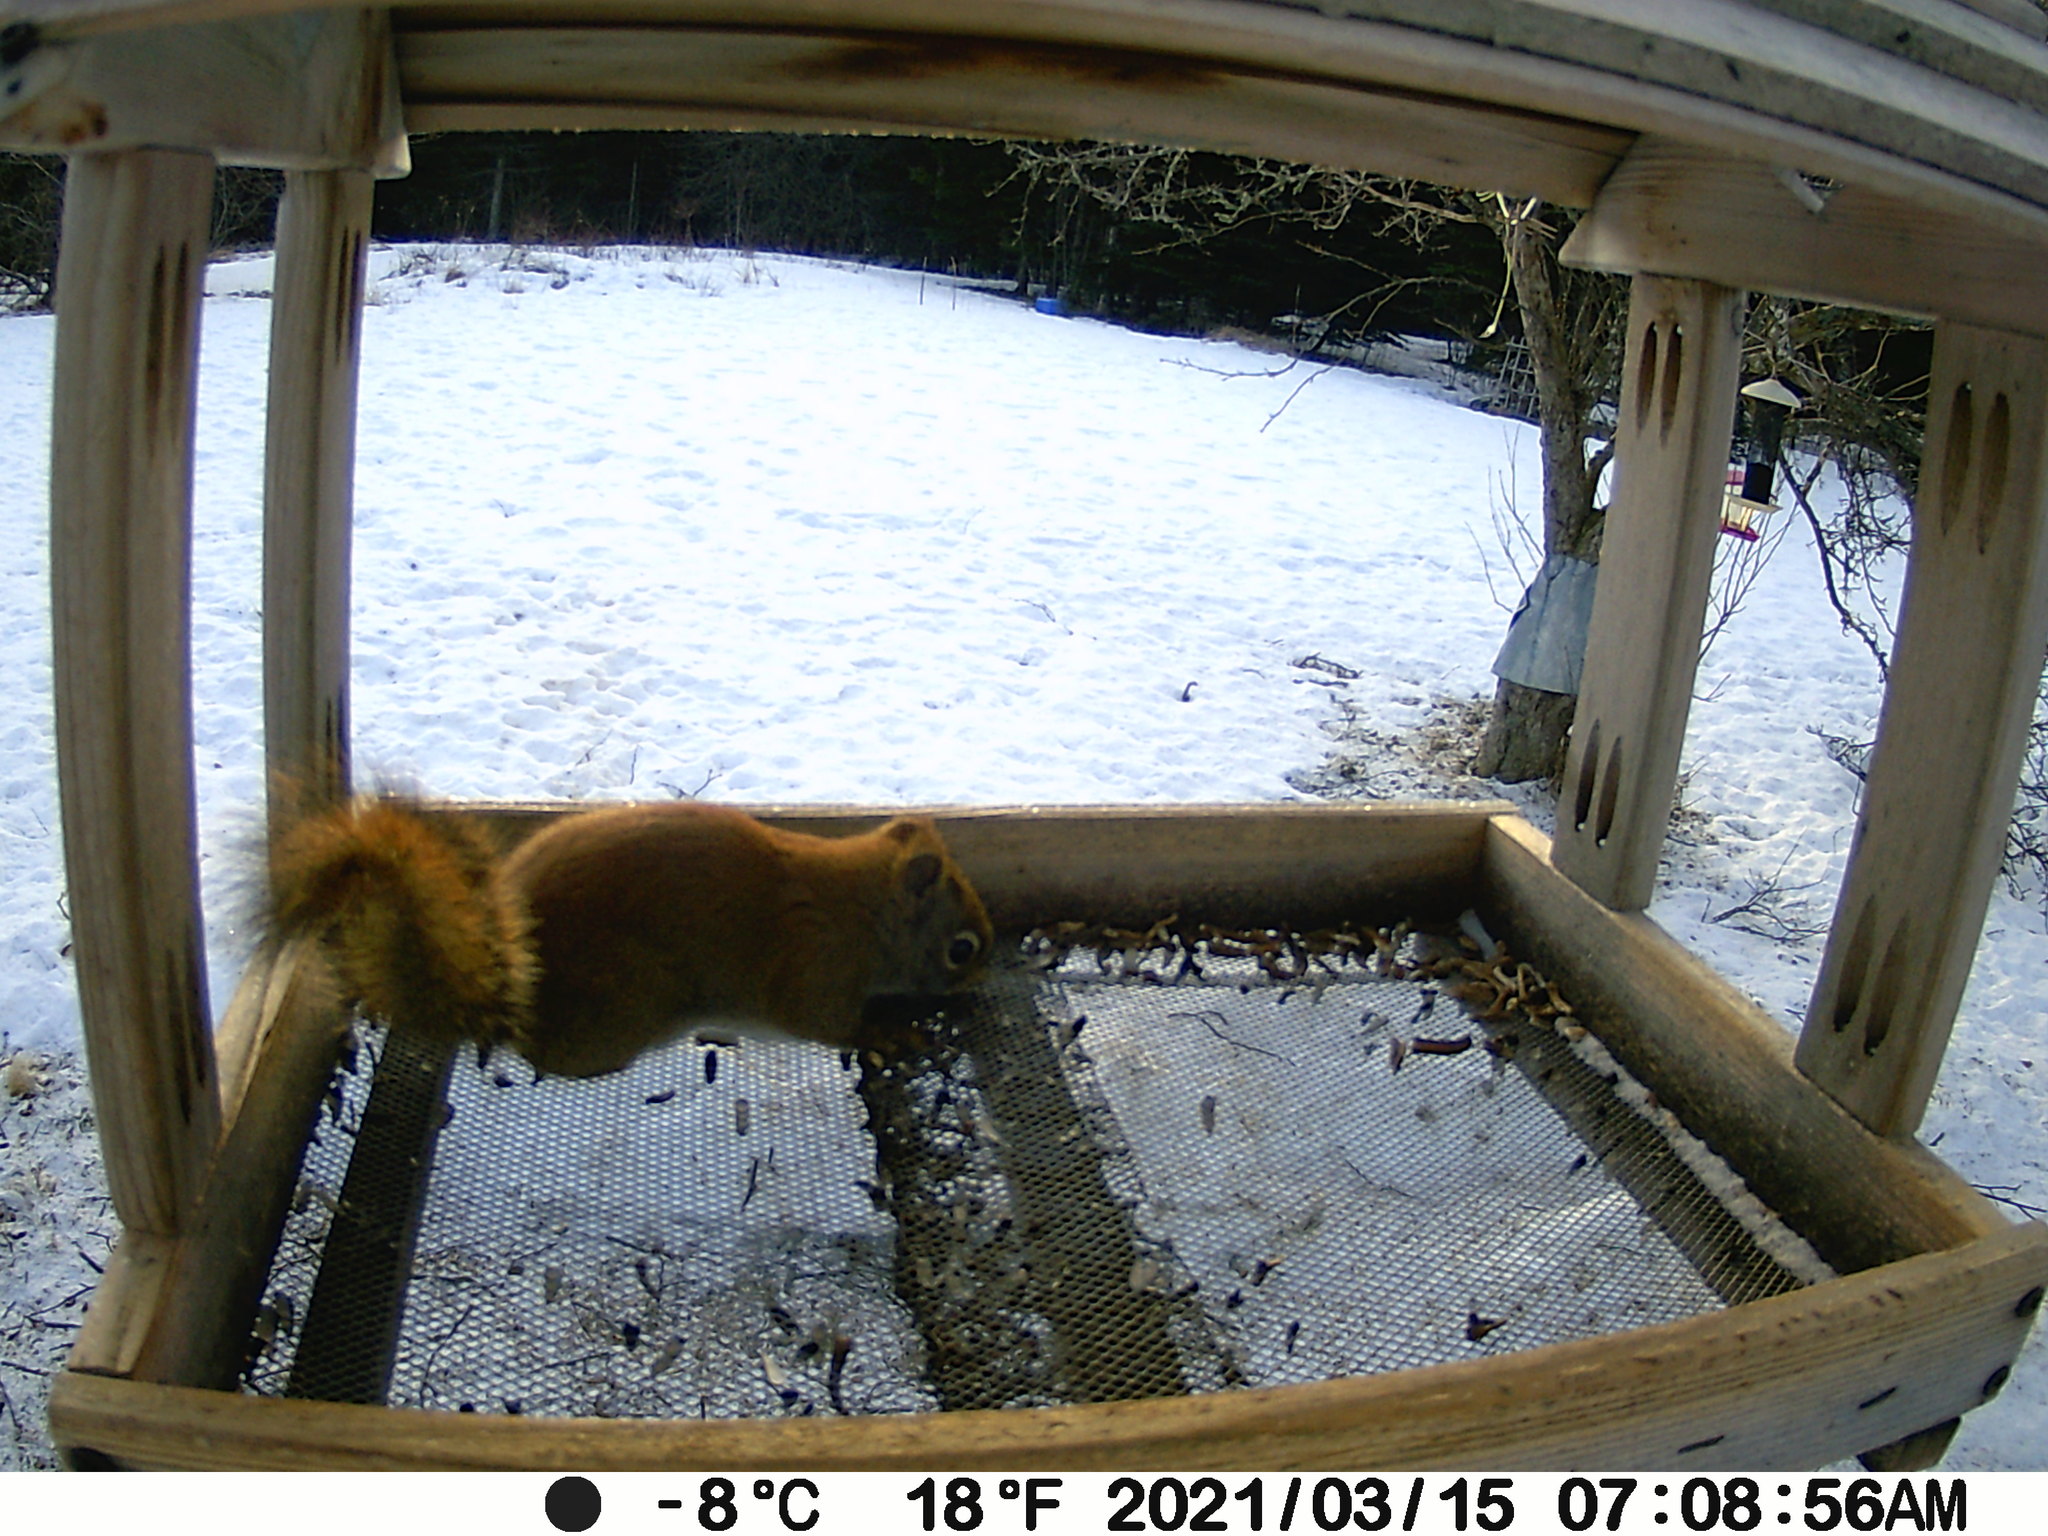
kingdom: Animalia
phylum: Chordata
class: Mammalia
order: Rodentia
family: Sciuridae
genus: Tamiasciurus
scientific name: Tamiasciurus hudsonicus
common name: Red squirrel
